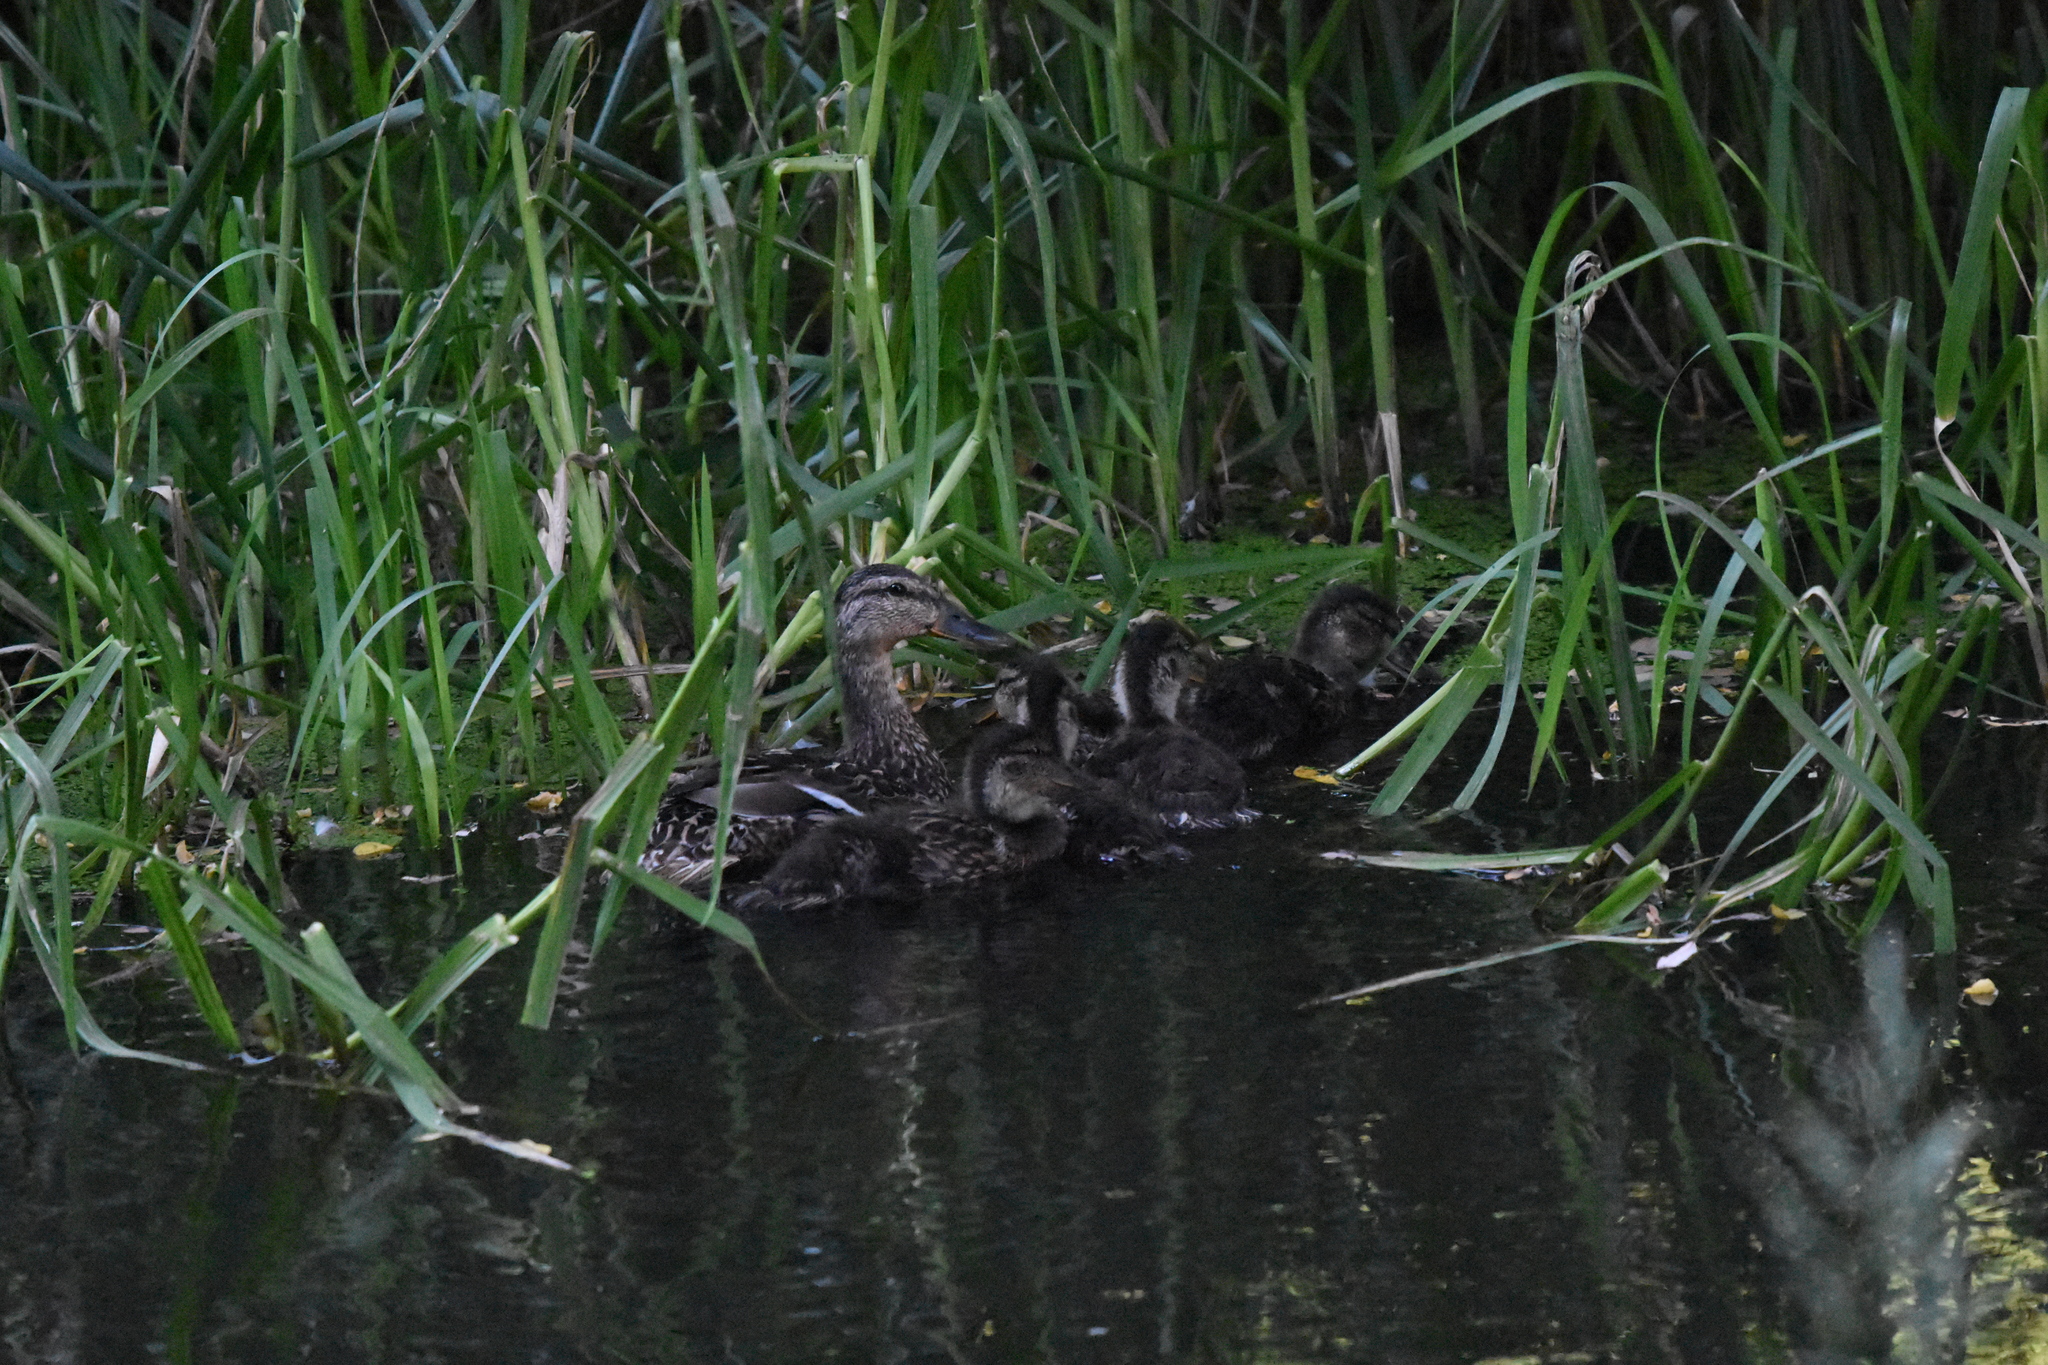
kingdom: Animalia
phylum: Chordata
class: Aves
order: Anseriformes
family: Anatidae
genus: Anas
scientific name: Anas platyrhynchos
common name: Mallard
